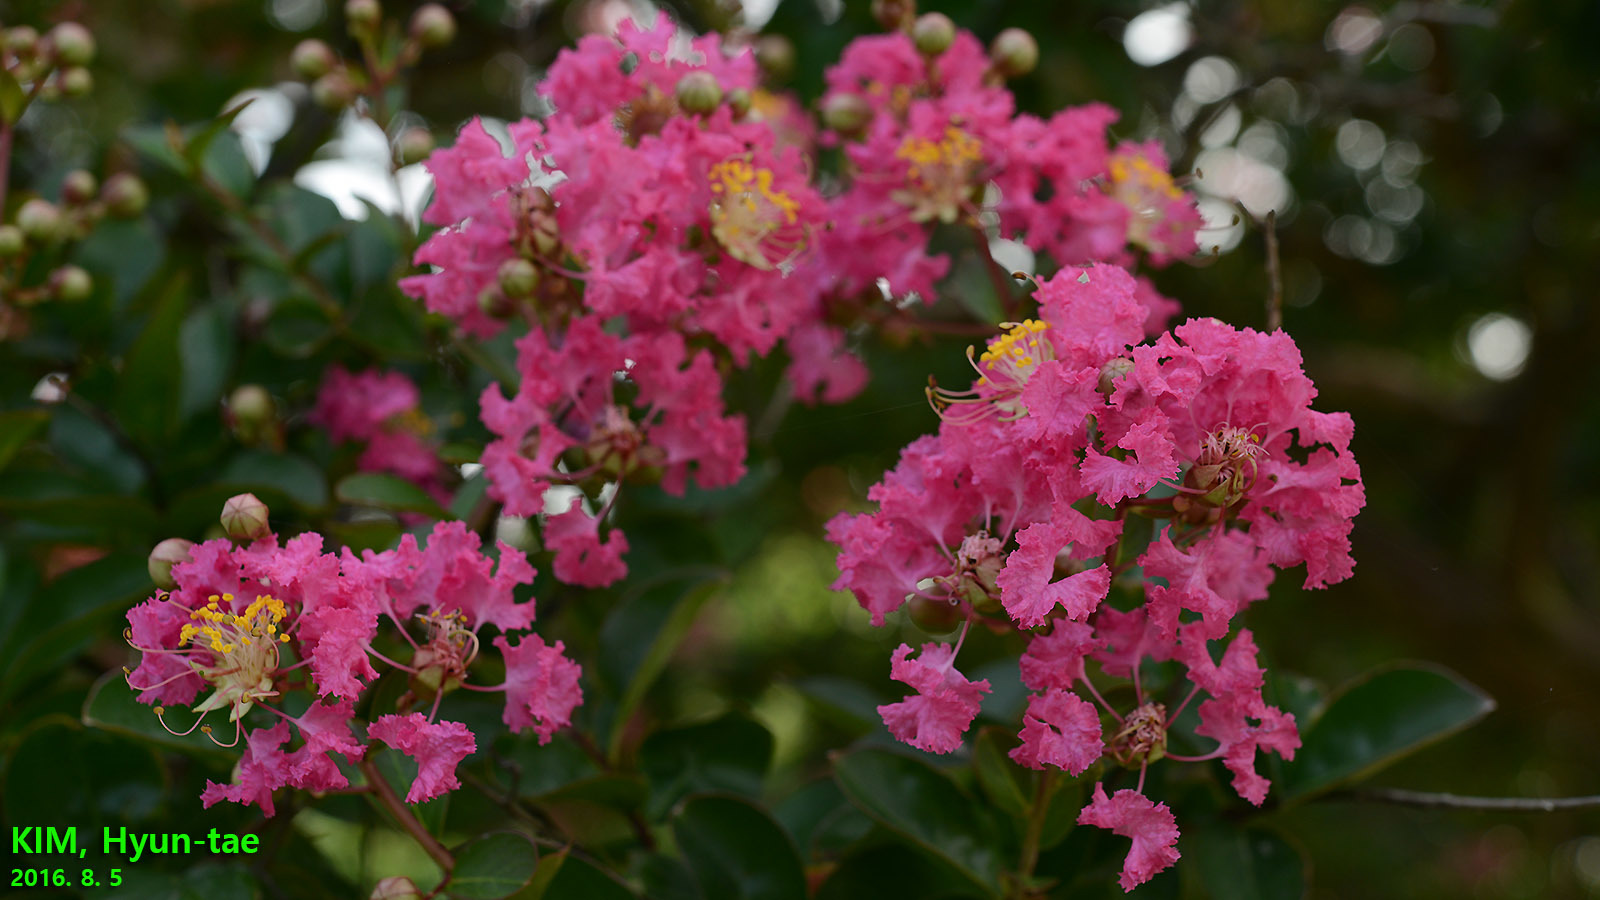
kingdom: Plantae
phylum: Tracheophyta
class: Magnoliopsida
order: Myrtales
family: Lythraceae
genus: Lagerstroemia
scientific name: Lagerstroemia indica
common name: Crape-myrtle
